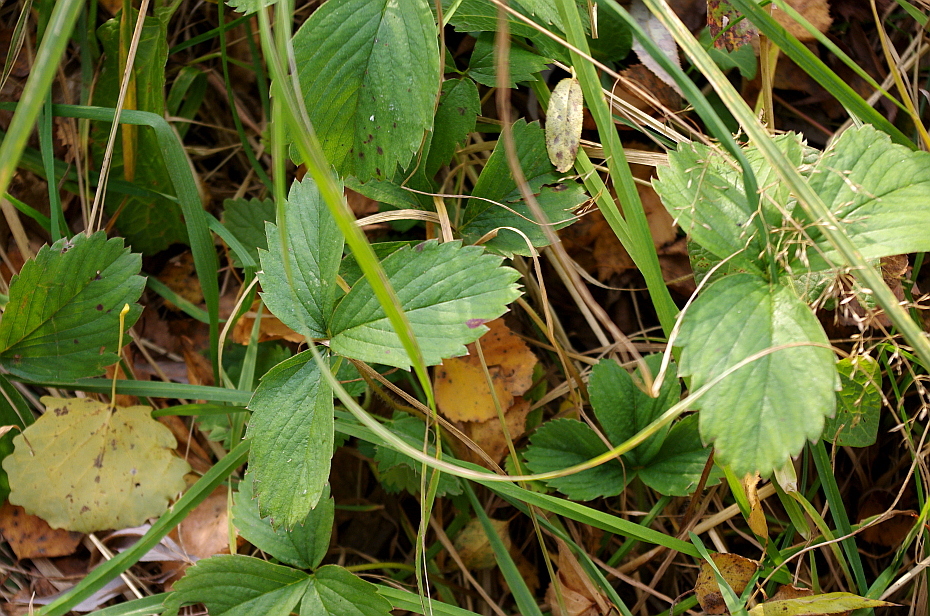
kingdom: Plantae
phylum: Tracheophyta
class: Magnoliopsida
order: Rosales
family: Rosaceae
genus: Fragaria
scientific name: Fragaria ananassa
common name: Garden strawberry
